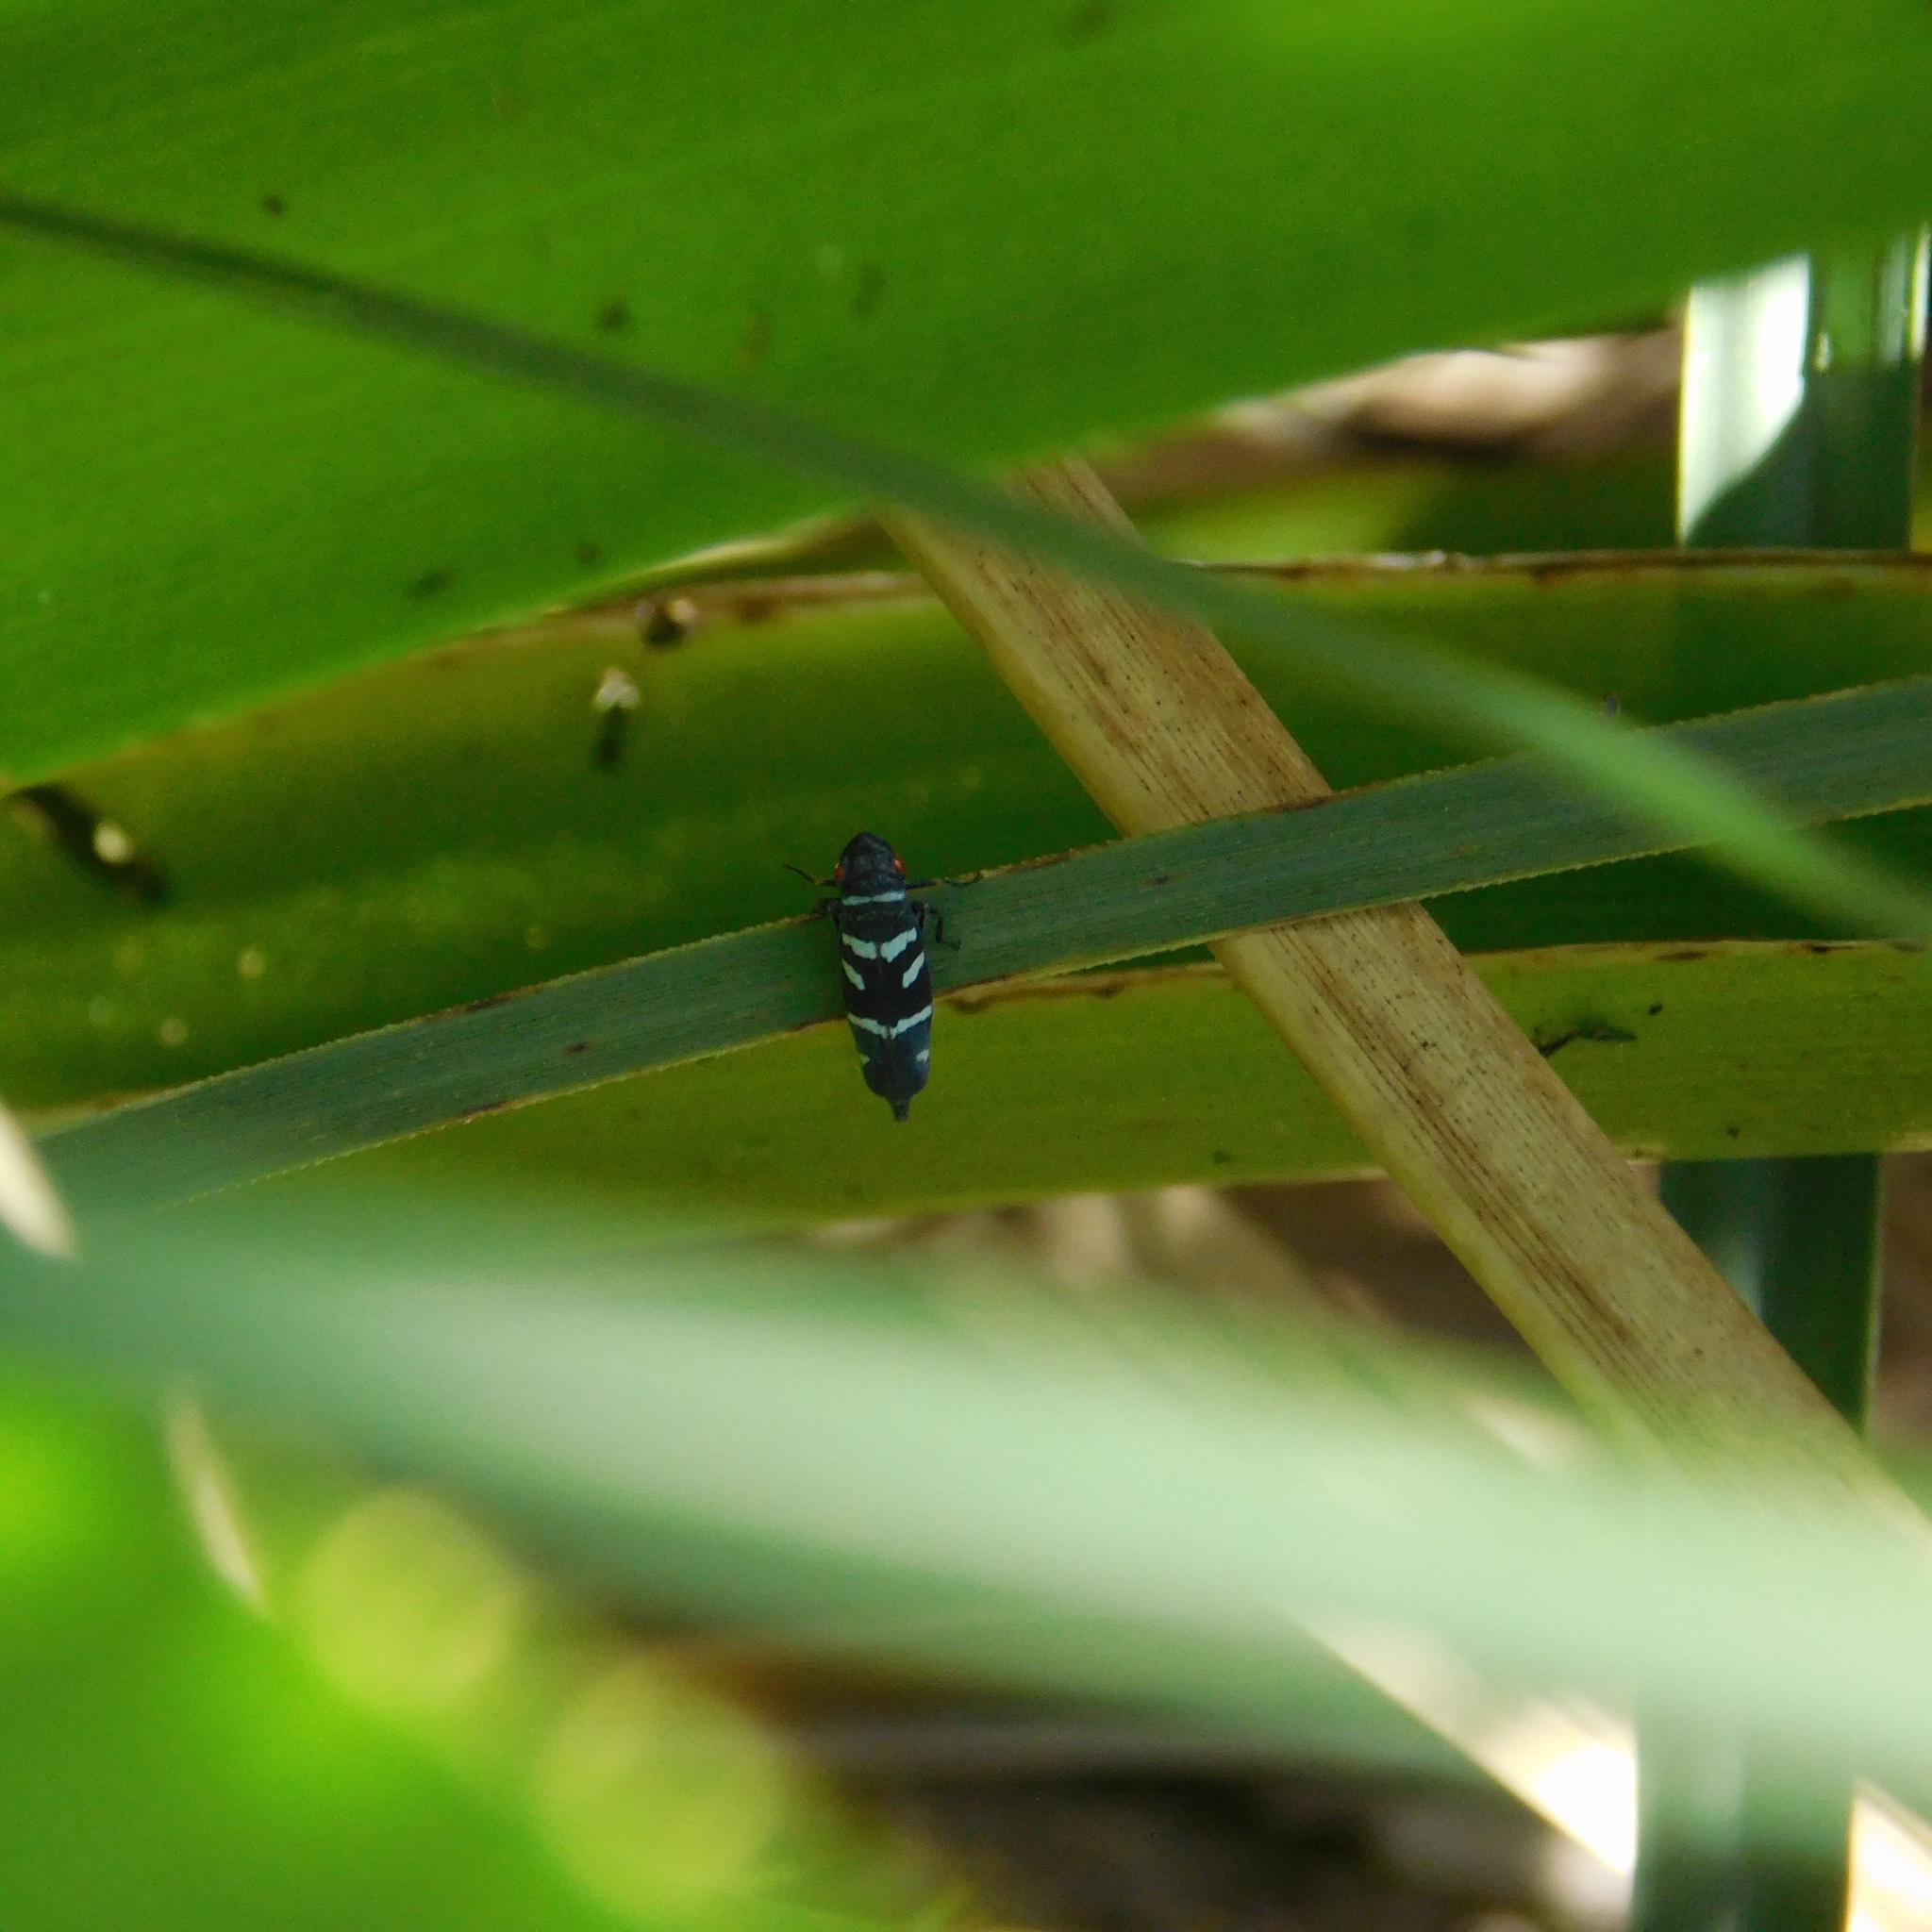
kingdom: Animalia
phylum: Arthropoda
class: Insecta
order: Hemiptera
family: Cicadellidae
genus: Balacha
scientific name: Balacha melanocephala
